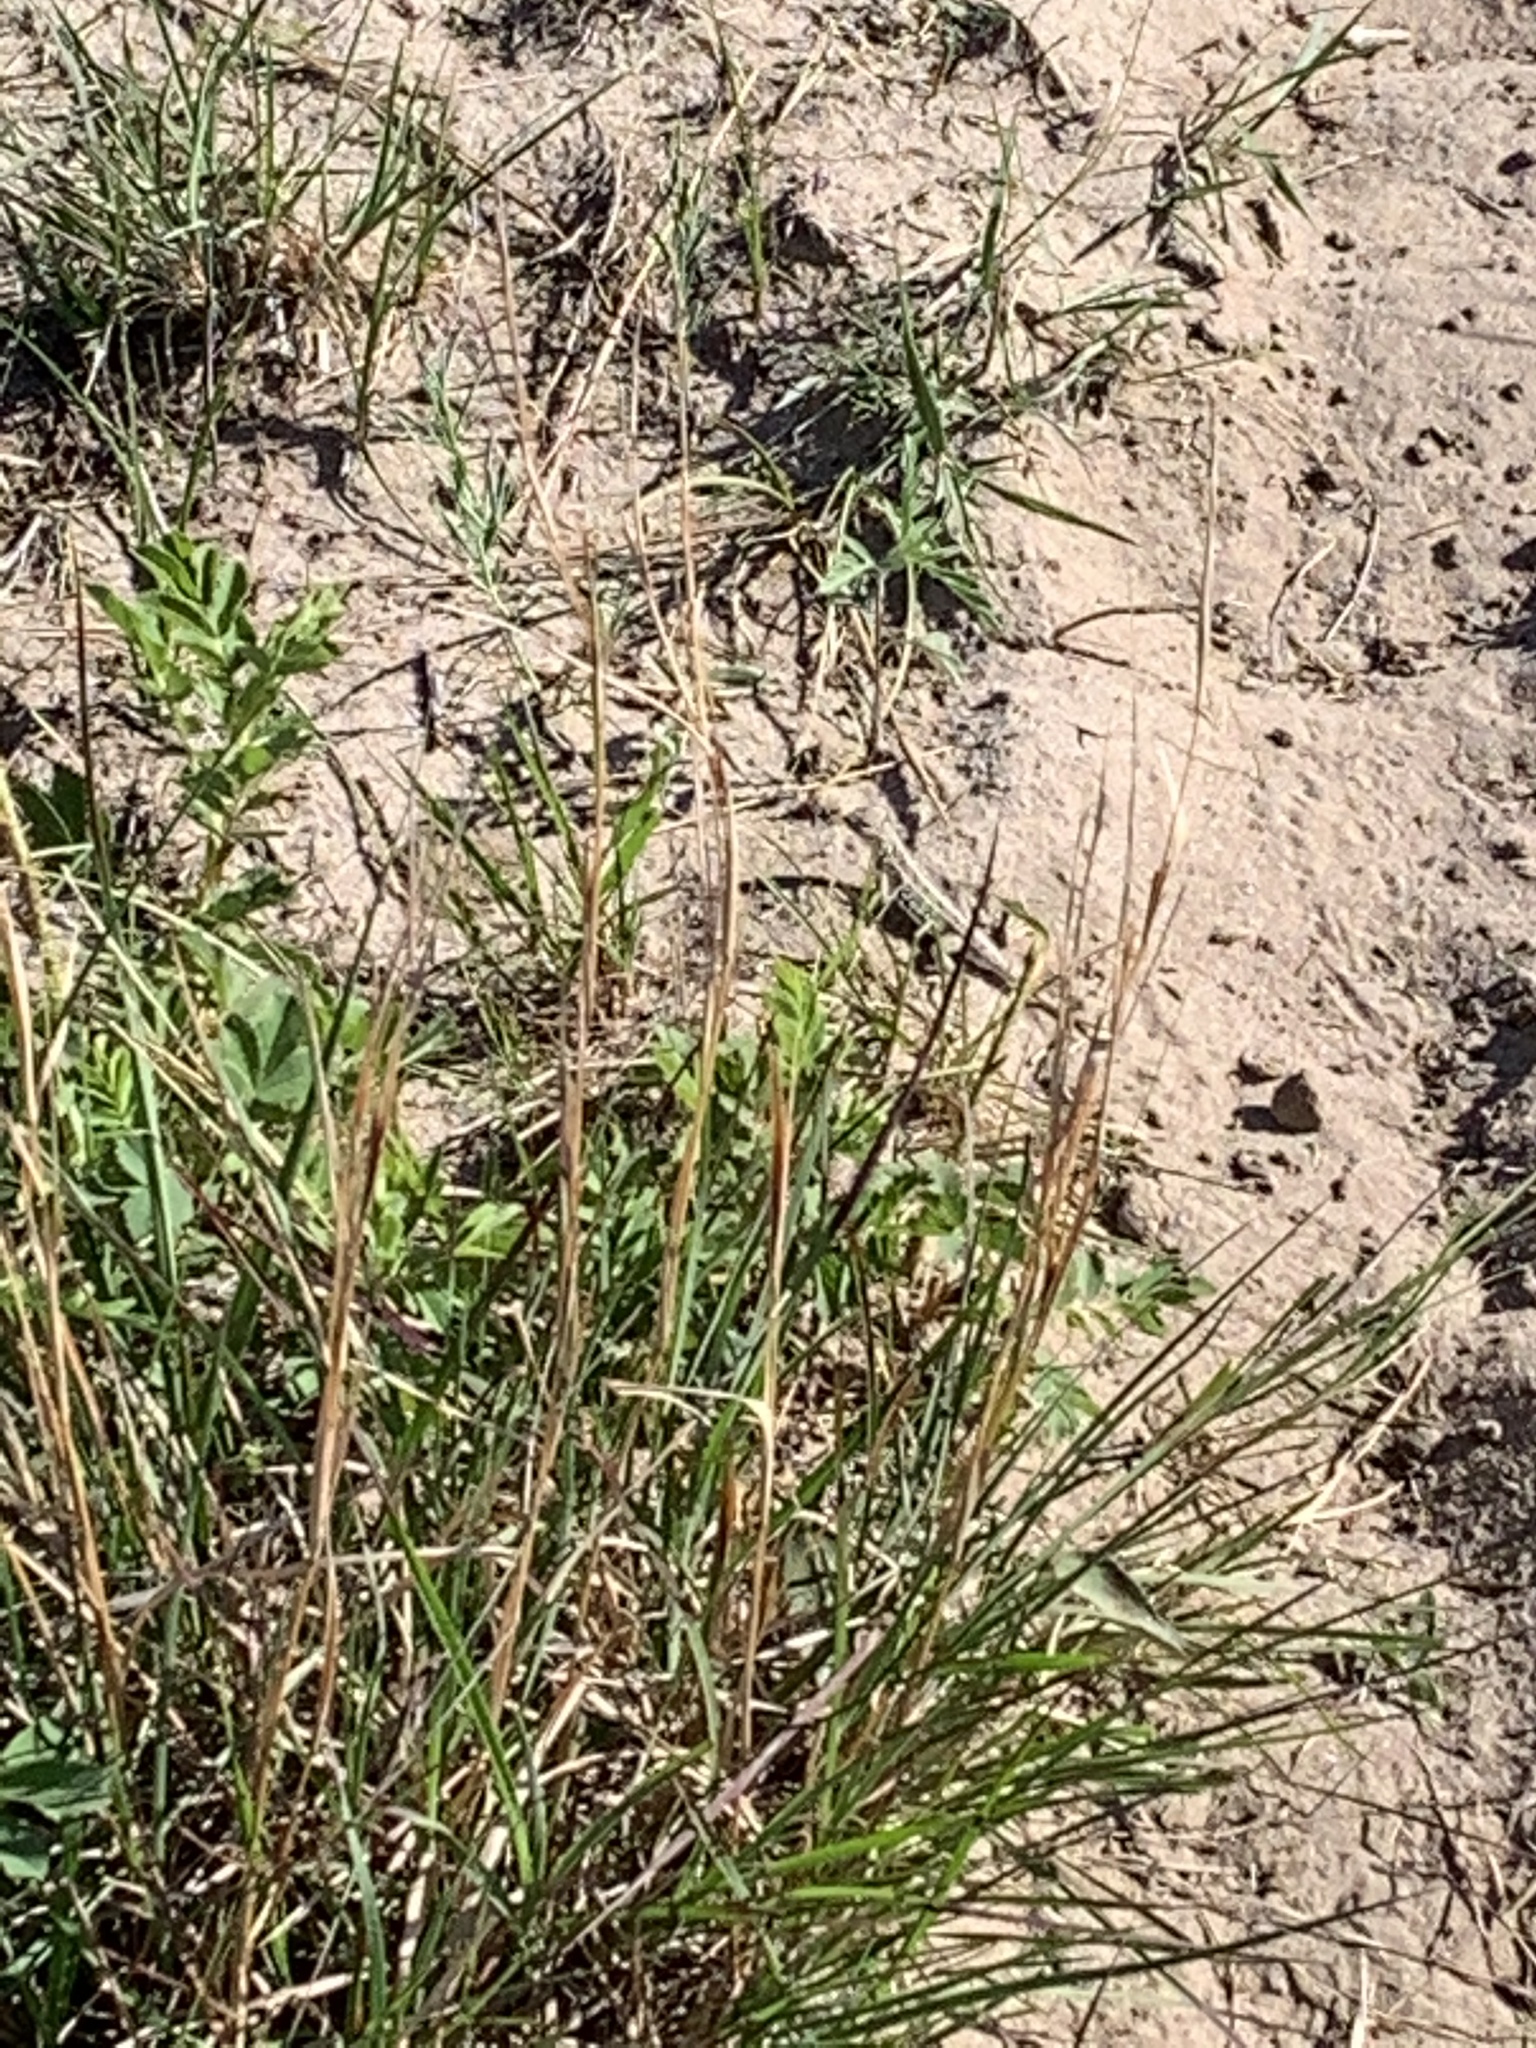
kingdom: Animalia
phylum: Chordata
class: Squamata
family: Phrynosomatidae
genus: Sceloporus
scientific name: Sceloporus consobrinus
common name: Southern prairie lizard
